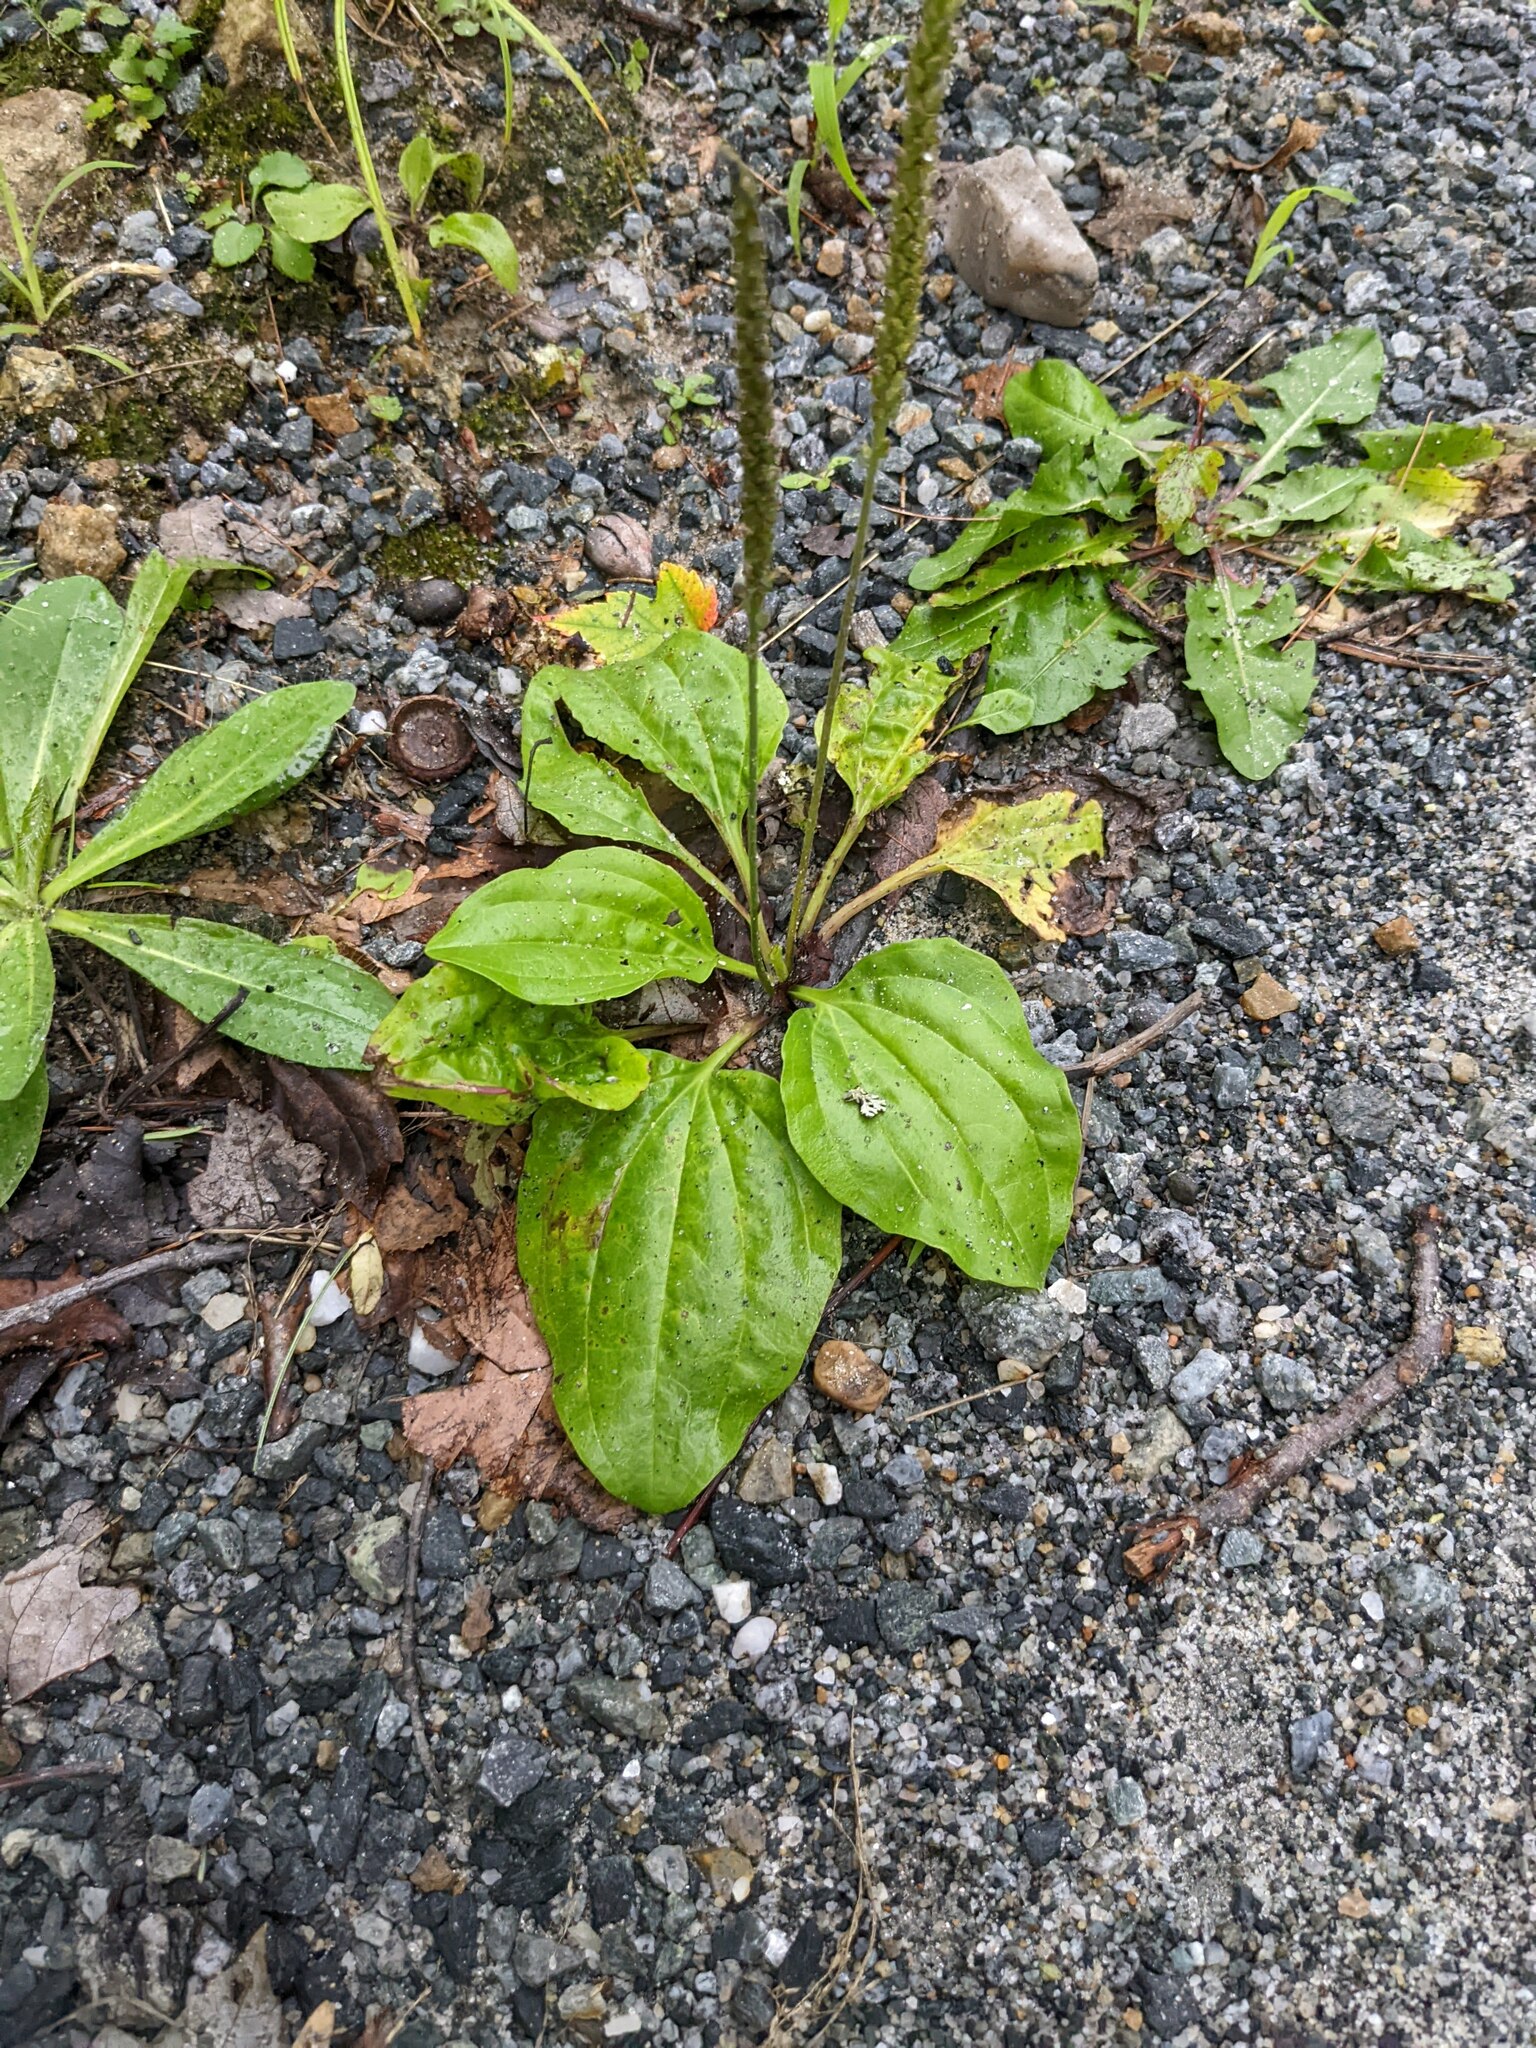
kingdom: Plantae
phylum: Tracheophyta
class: Magnoliopsida
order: Lamiales
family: Plantaginaceae
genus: Plantago
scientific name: Plantago major
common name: Common plantain
